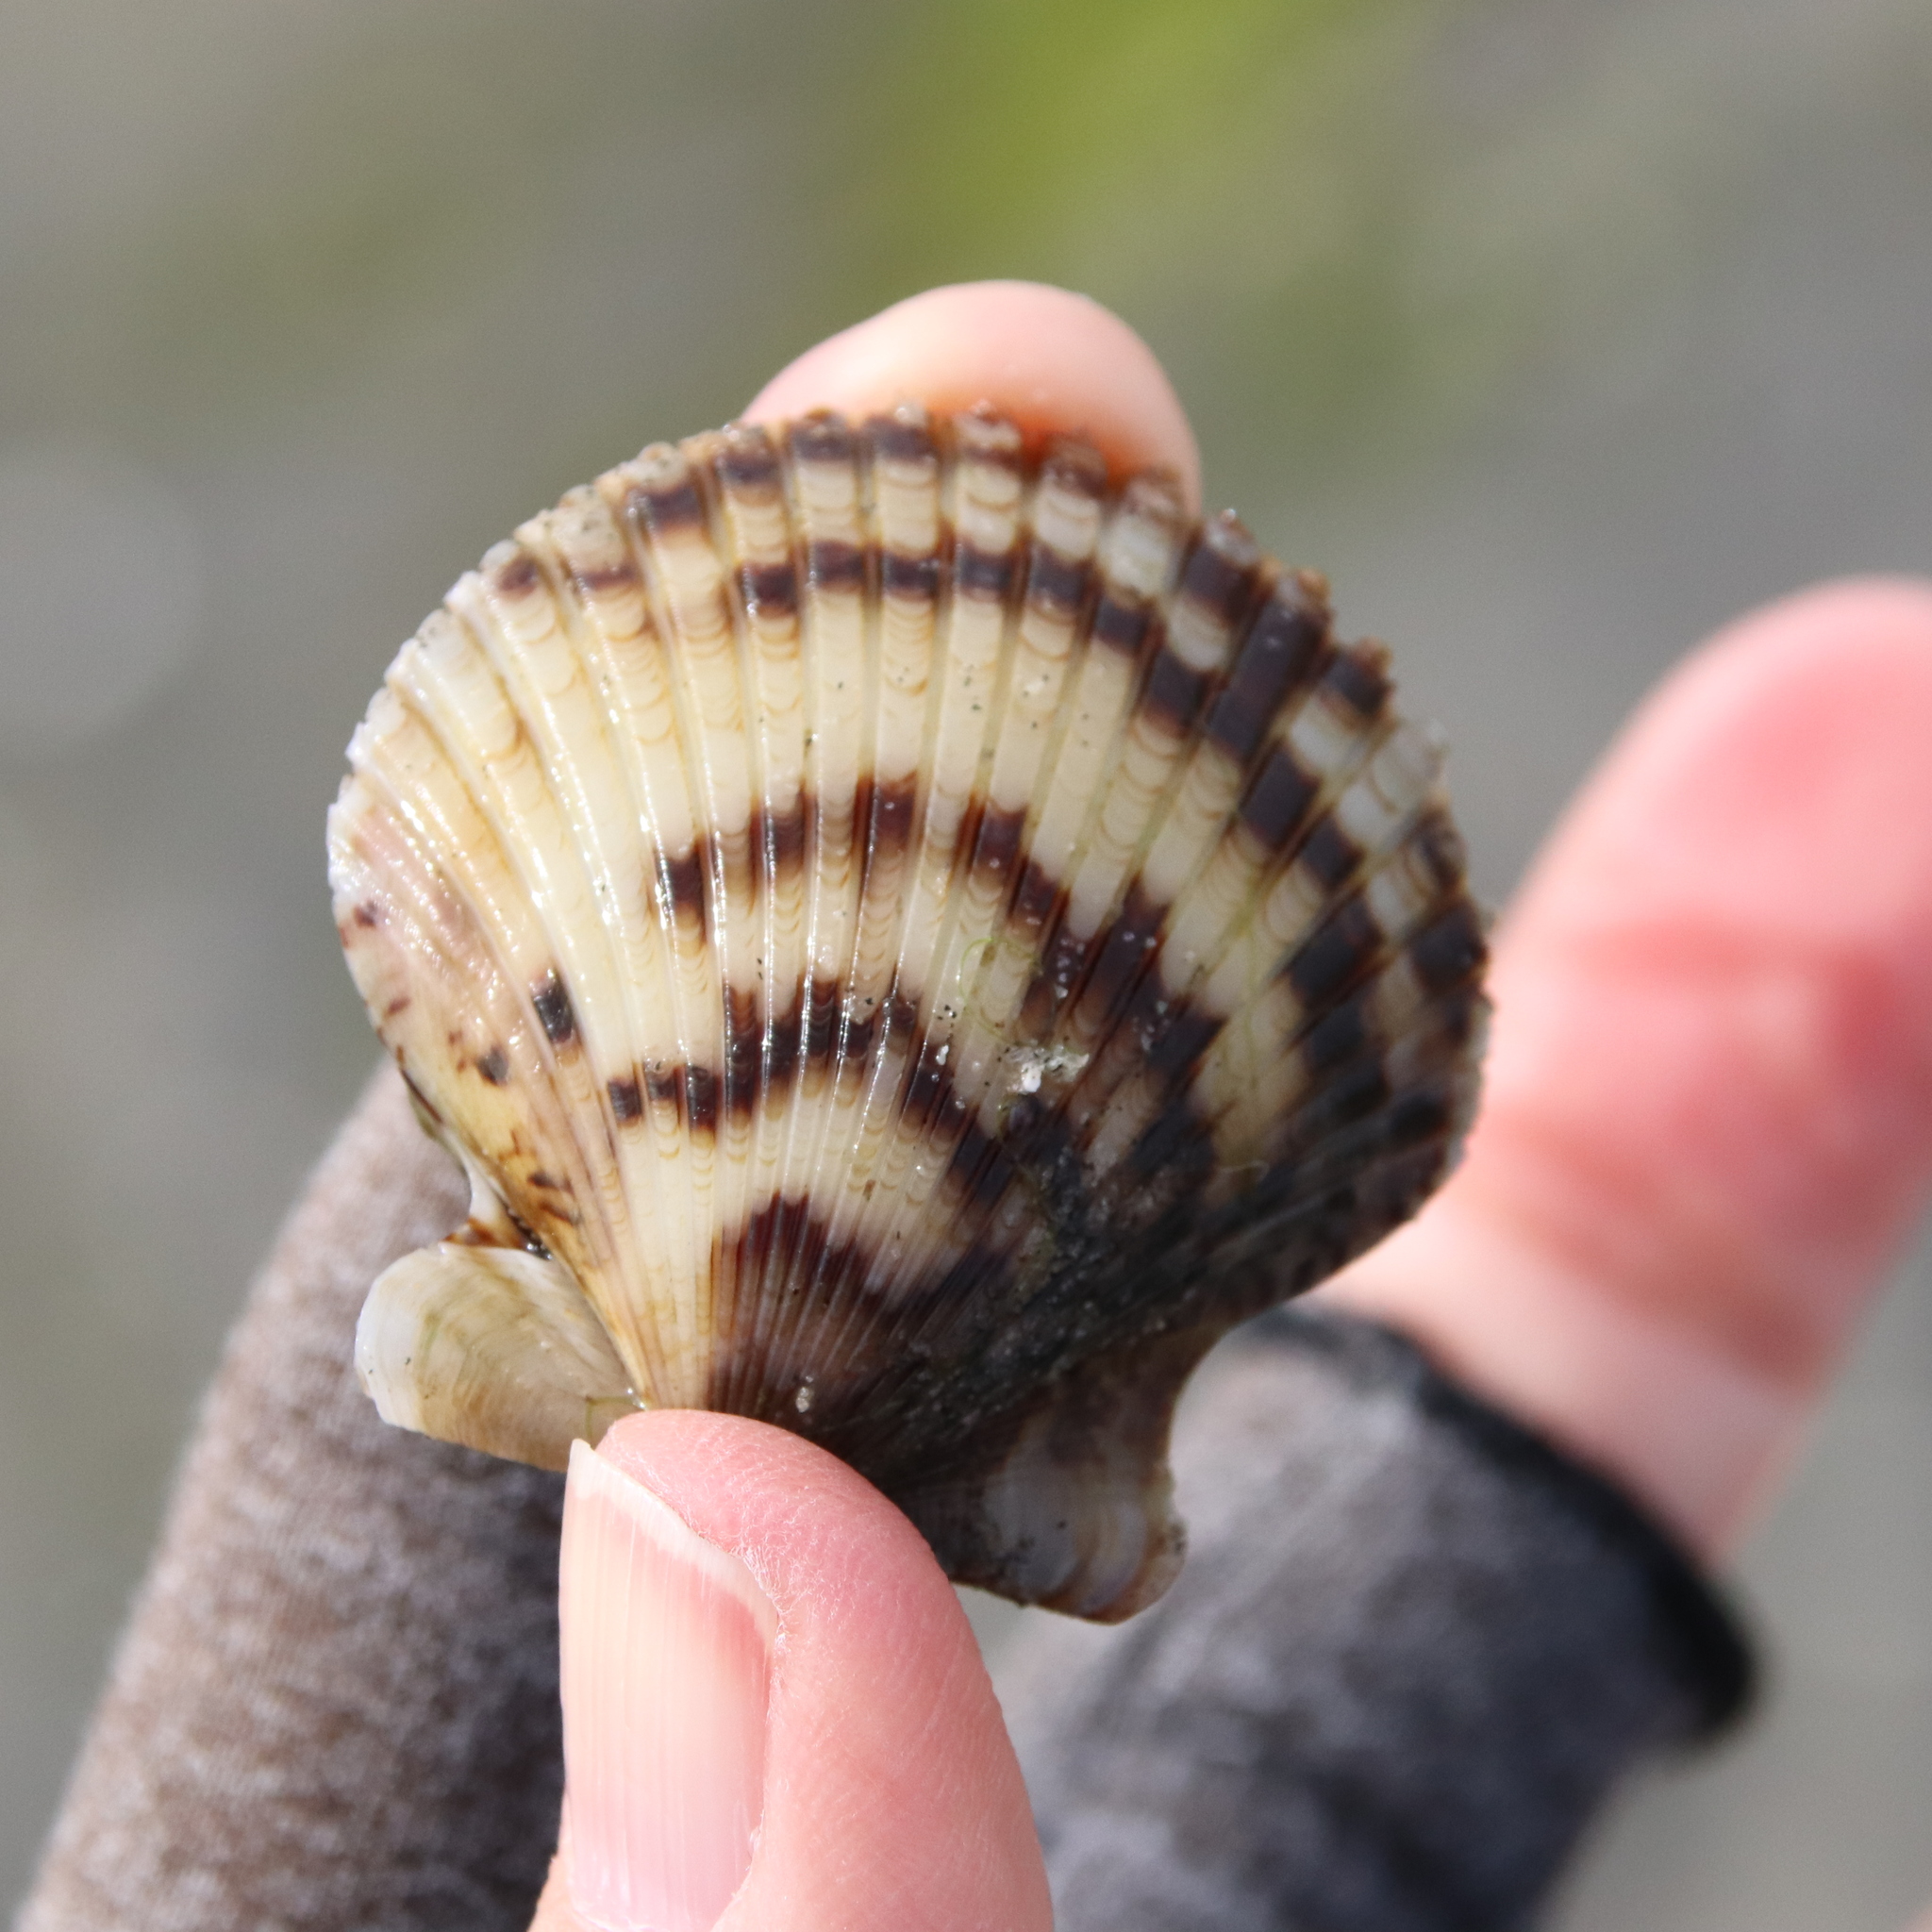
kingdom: Animalia
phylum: Mollusca
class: Bivalvia
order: Pectinida
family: Pectinidae
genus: Argopecten
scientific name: Argopecten ventricosus
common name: Catarina scallop
